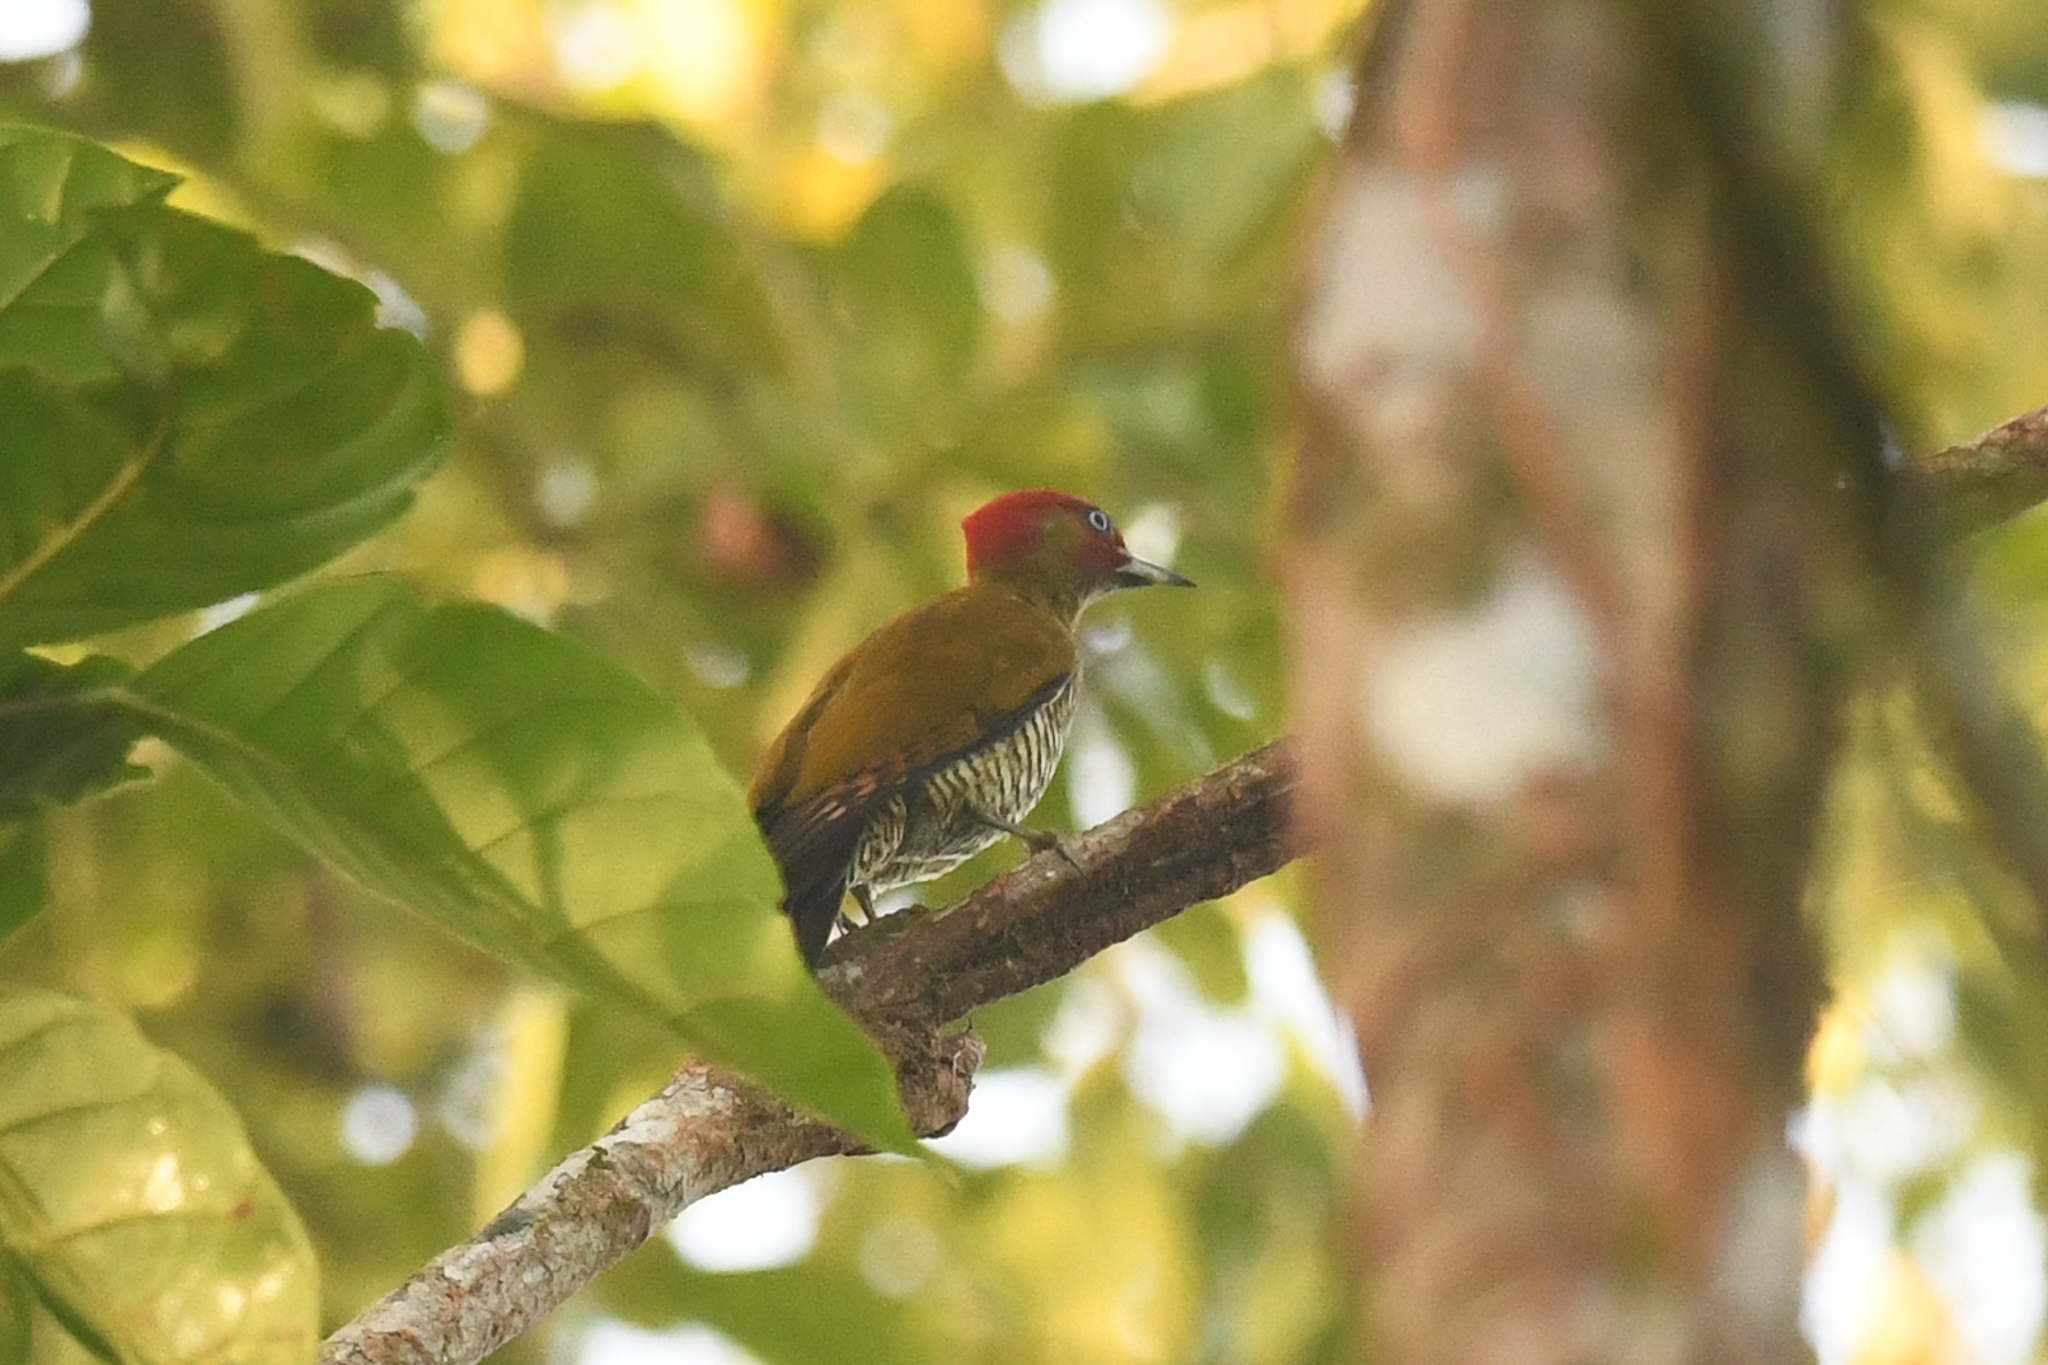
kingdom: Animalia
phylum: Chordata
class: Aves
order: Piciformes
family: Picidae
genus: Piculus
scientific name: Piculus simplex
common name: Rufous-winged woodpecker
